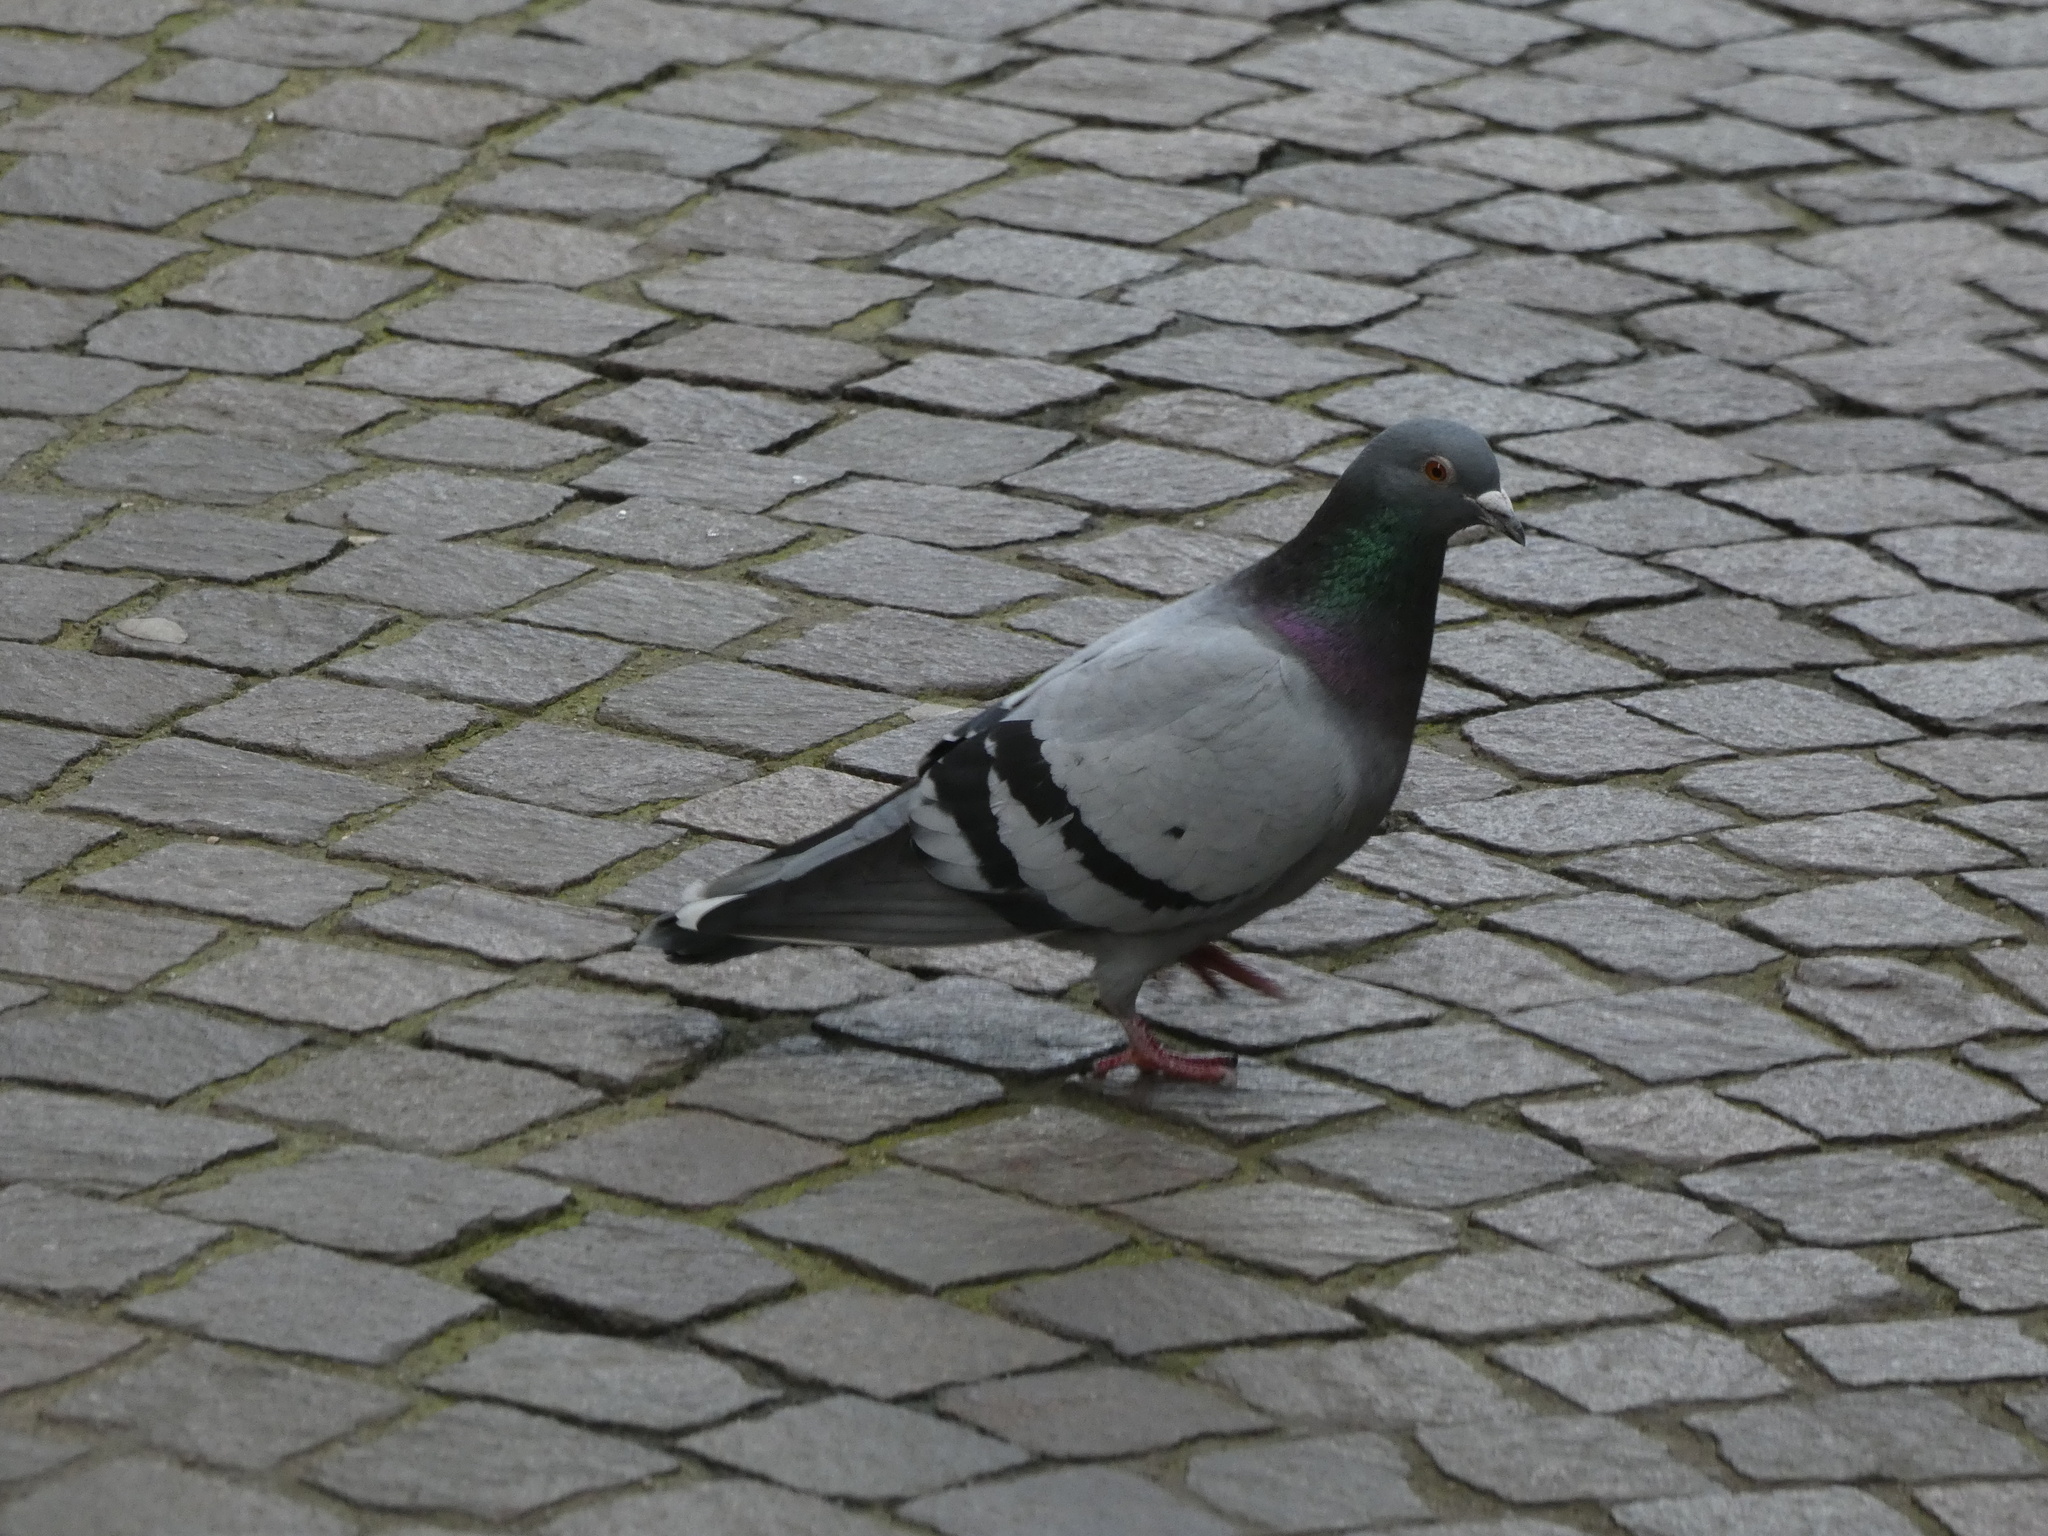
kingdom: Animalia
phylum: Chordata
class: Aves
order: Columbiformes
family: Columbidae
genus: Columba
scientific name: Columba livia
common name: Rock pigeon
